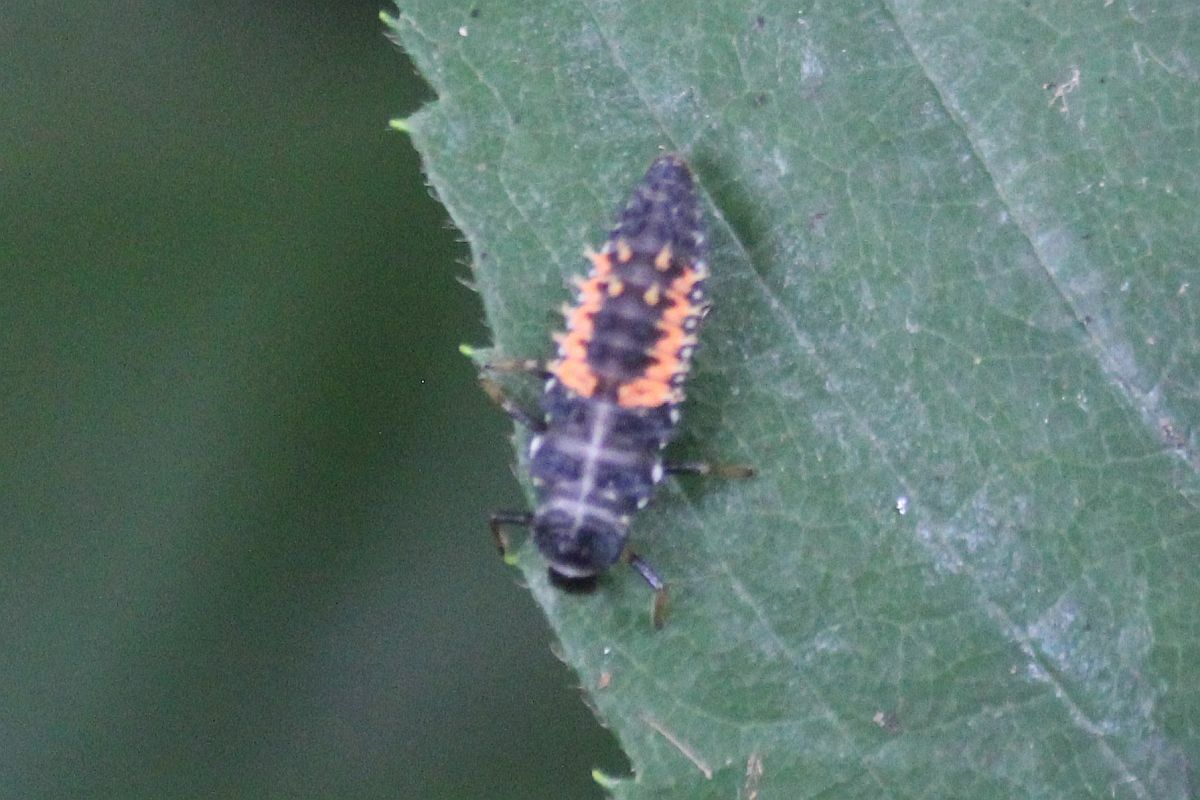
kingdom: Animalia
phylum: Arthropoda
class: Insecta
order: Coleoptera
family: Coccinellidae
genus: Harmonia
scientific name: Harmonia axyridis
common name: Harlequin ladybird
